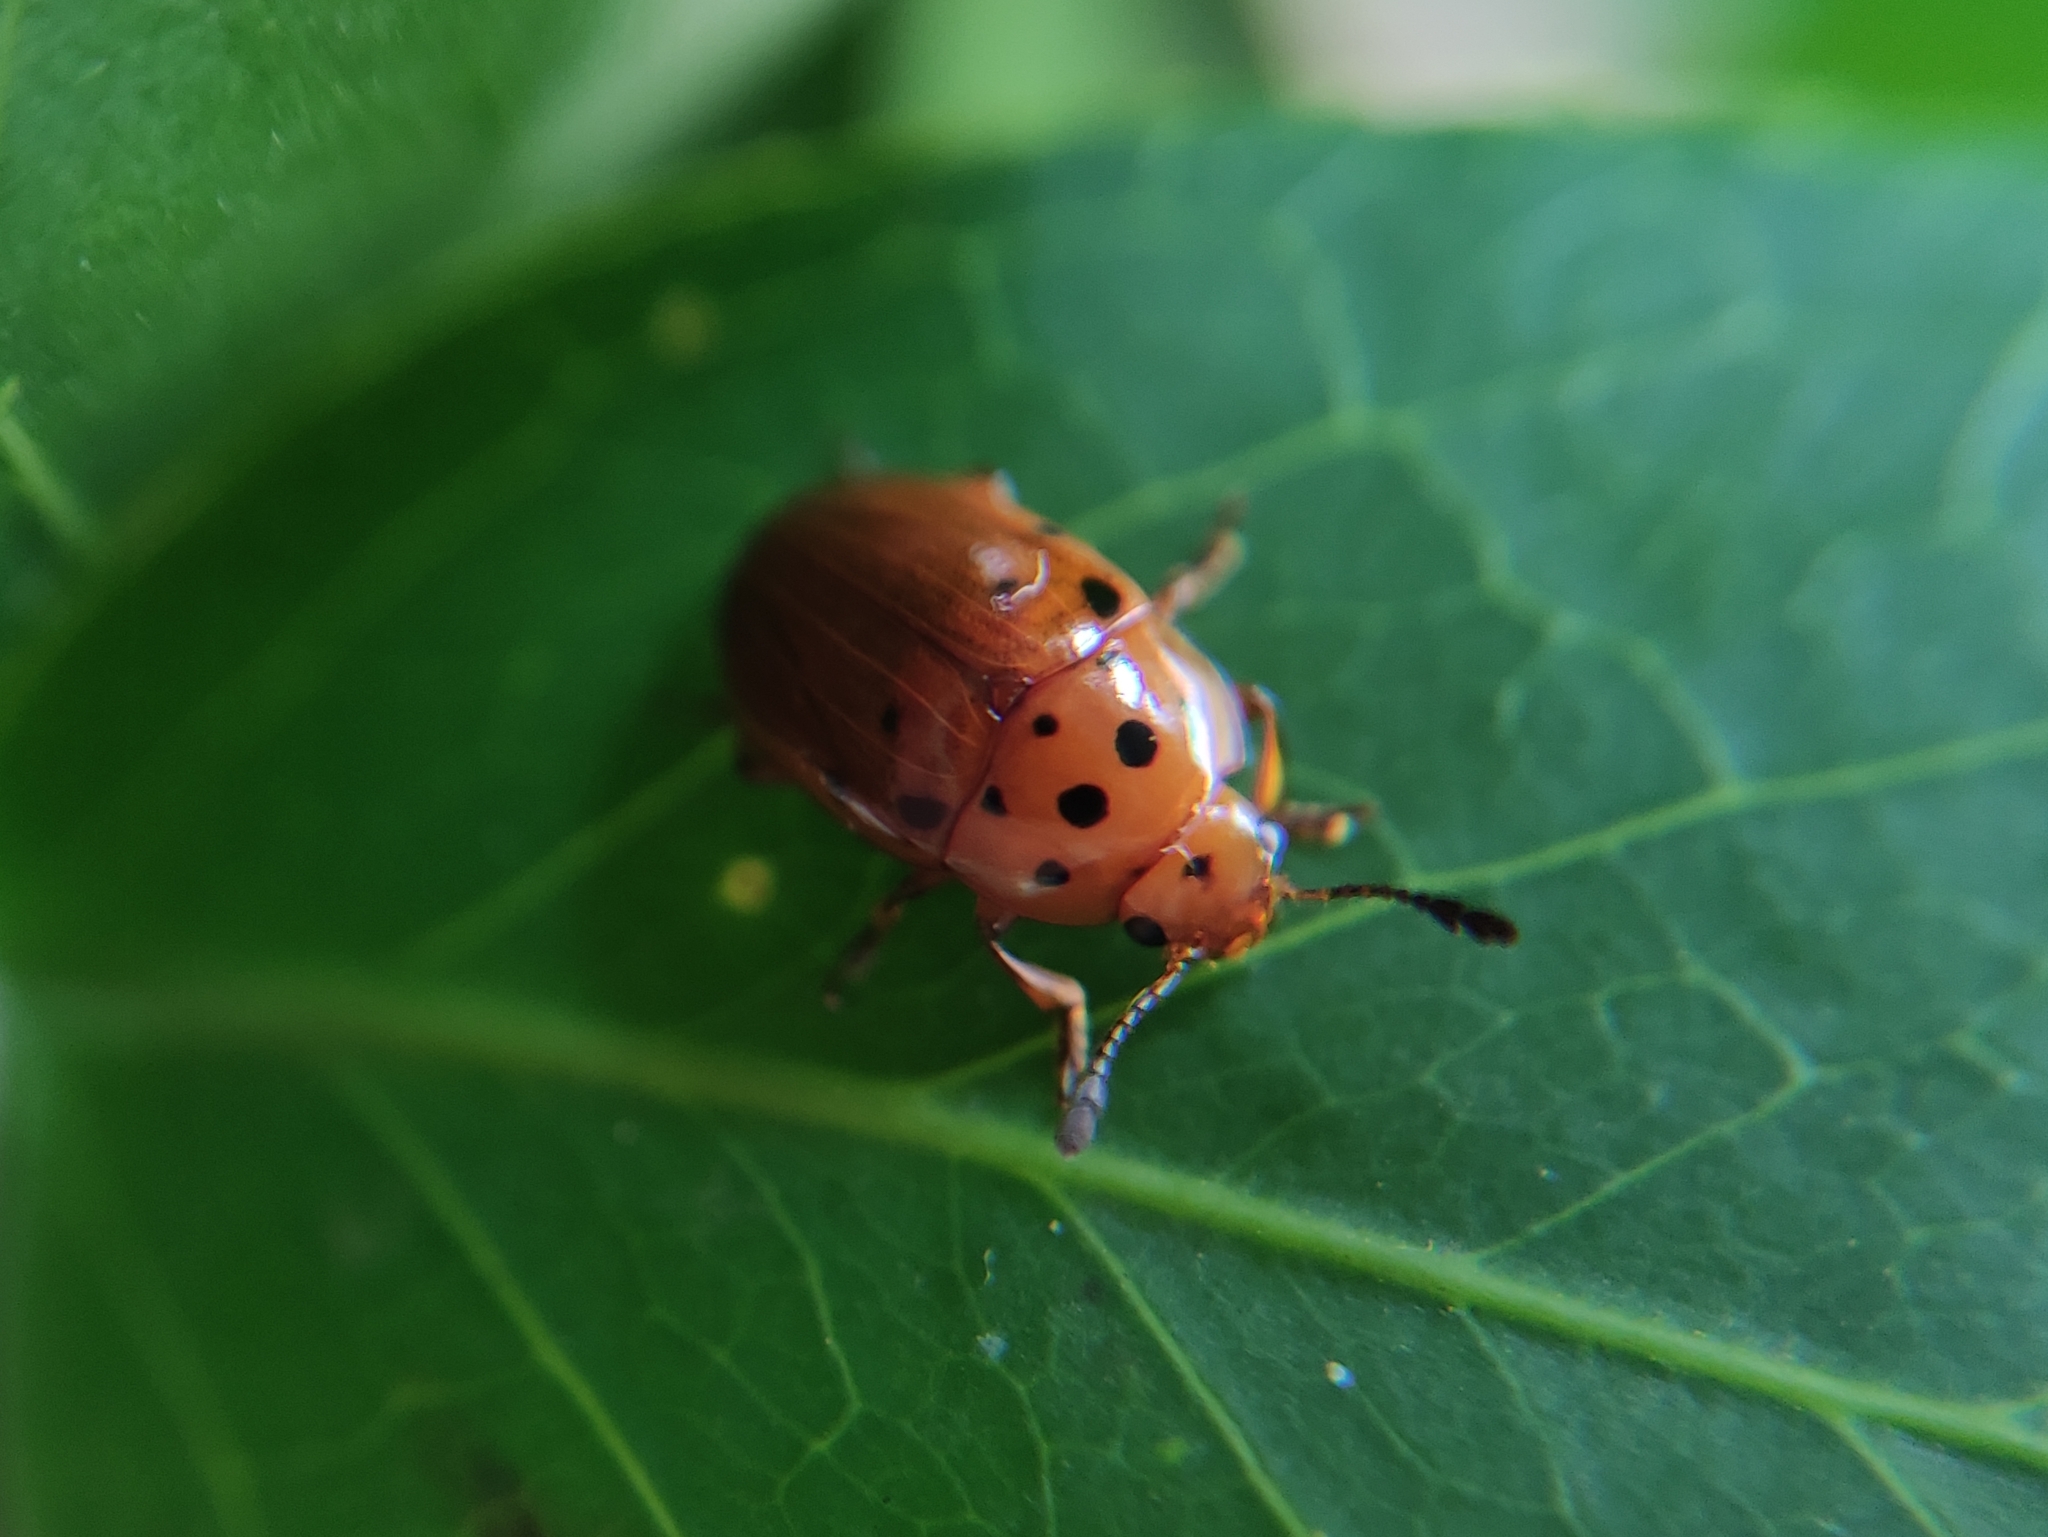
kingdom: Animalia
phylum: Arthropoda
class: Insecta
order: Coleoptera
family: Erotylidae
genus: Mycotretus
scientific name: Mycotretus nigropunctatus
